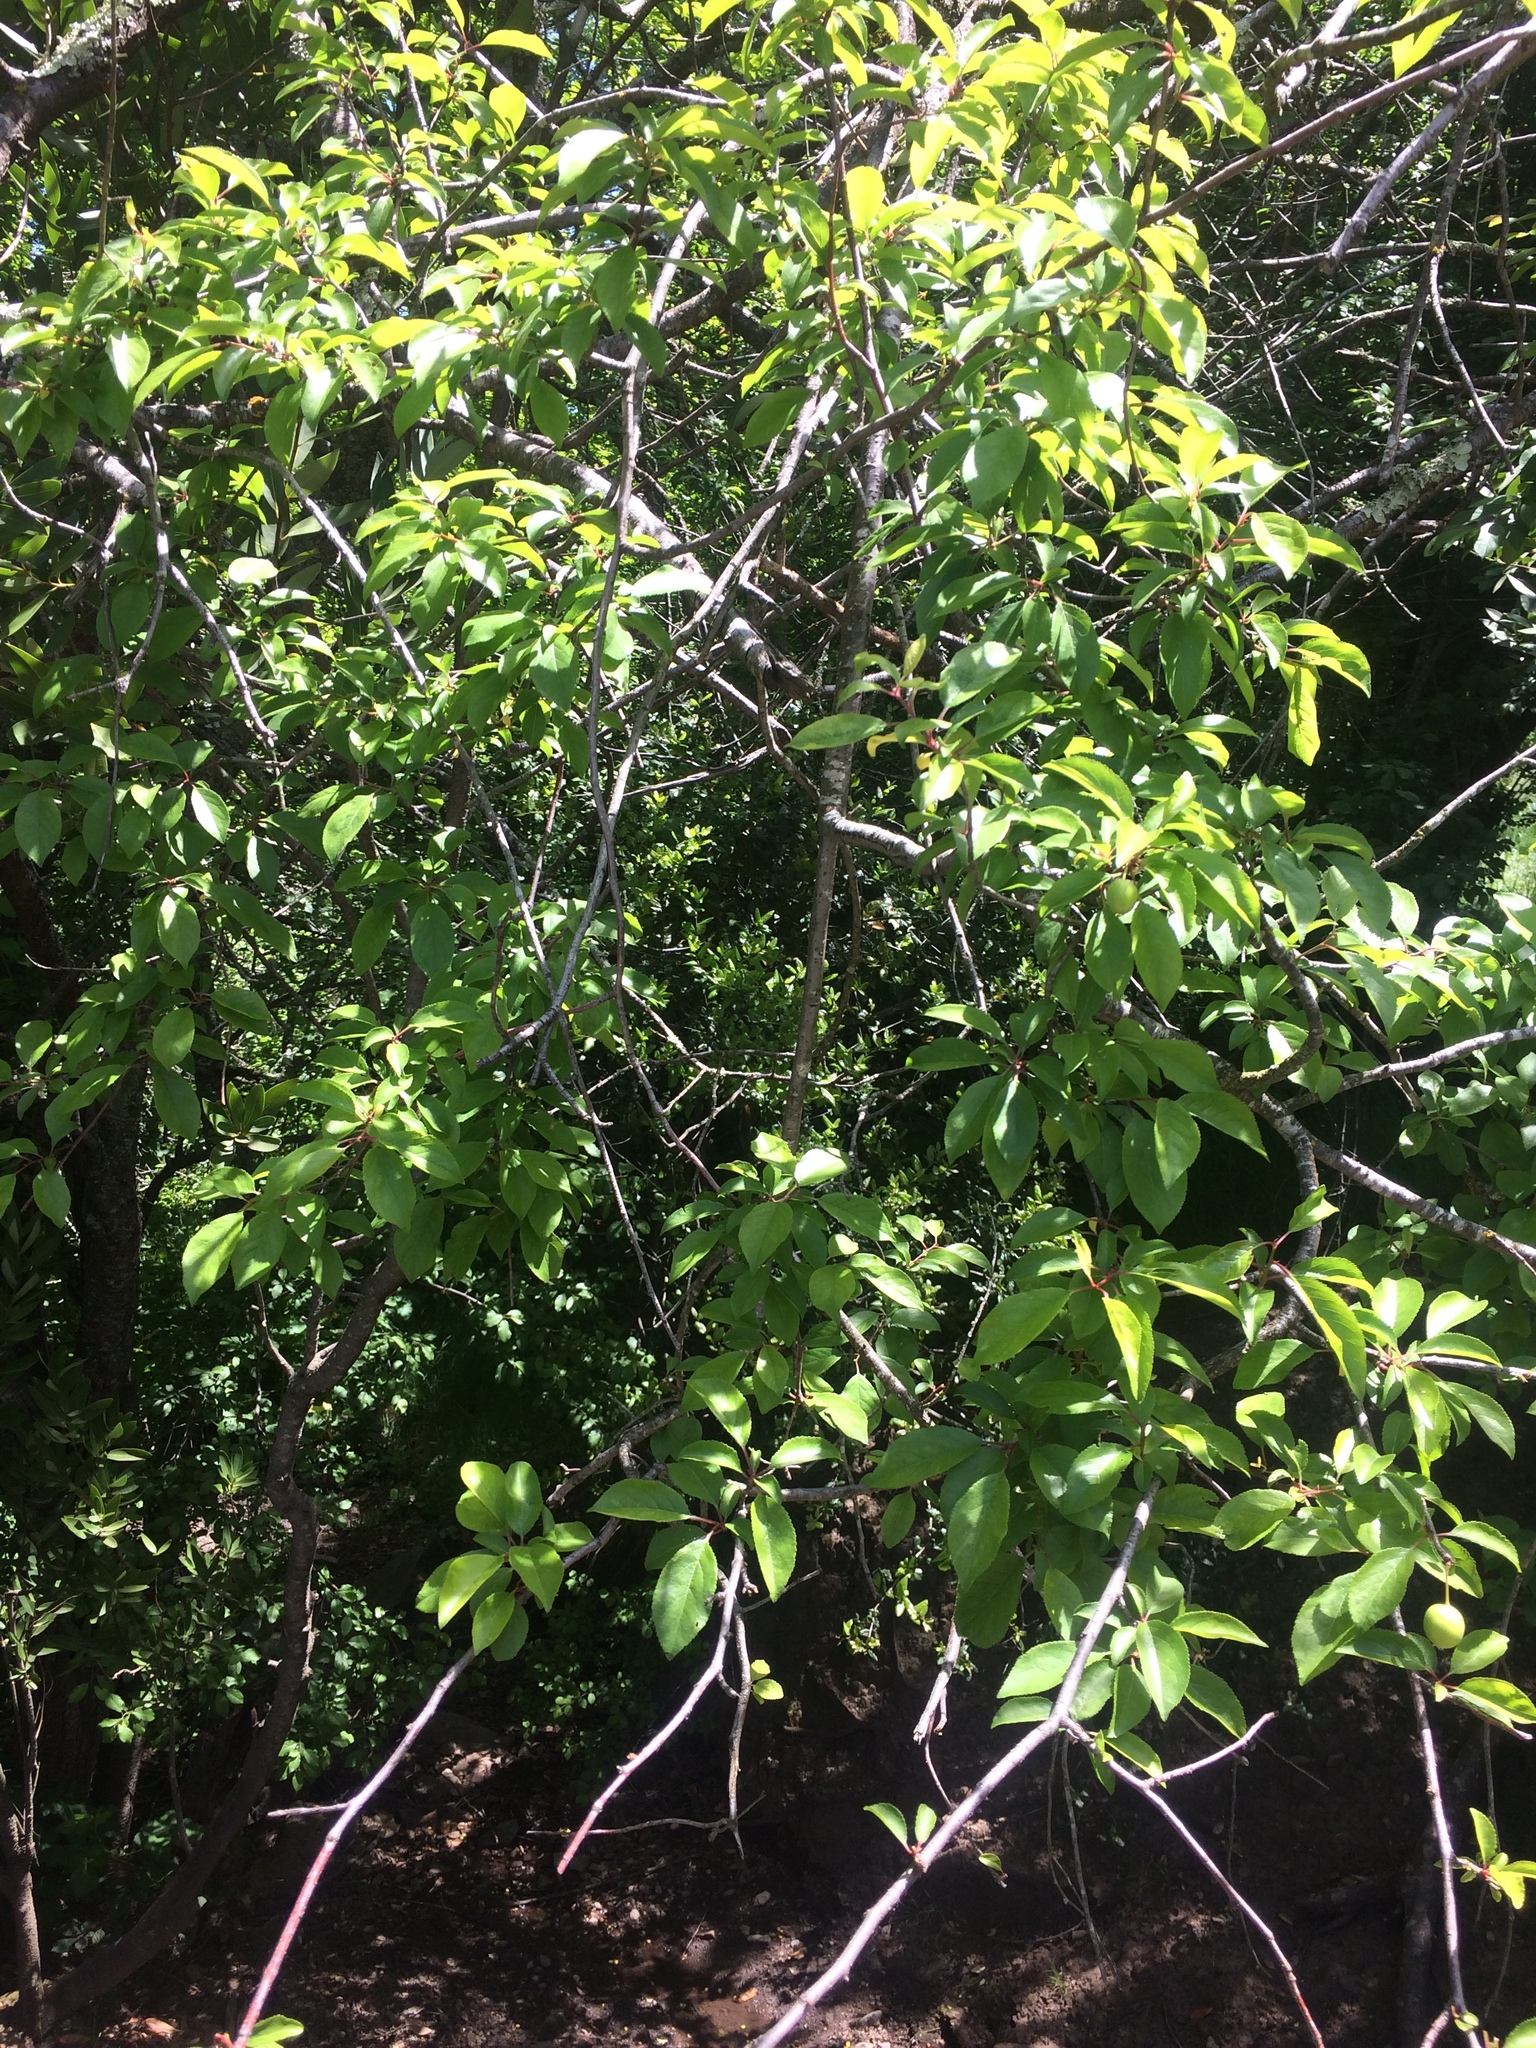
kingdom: Plantae
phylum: Tracheophyta
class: Magnoliopsida
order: Rosales
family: Rosaceae
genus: Prunus
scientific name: Prunus cerasifera
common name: Cherry plum
